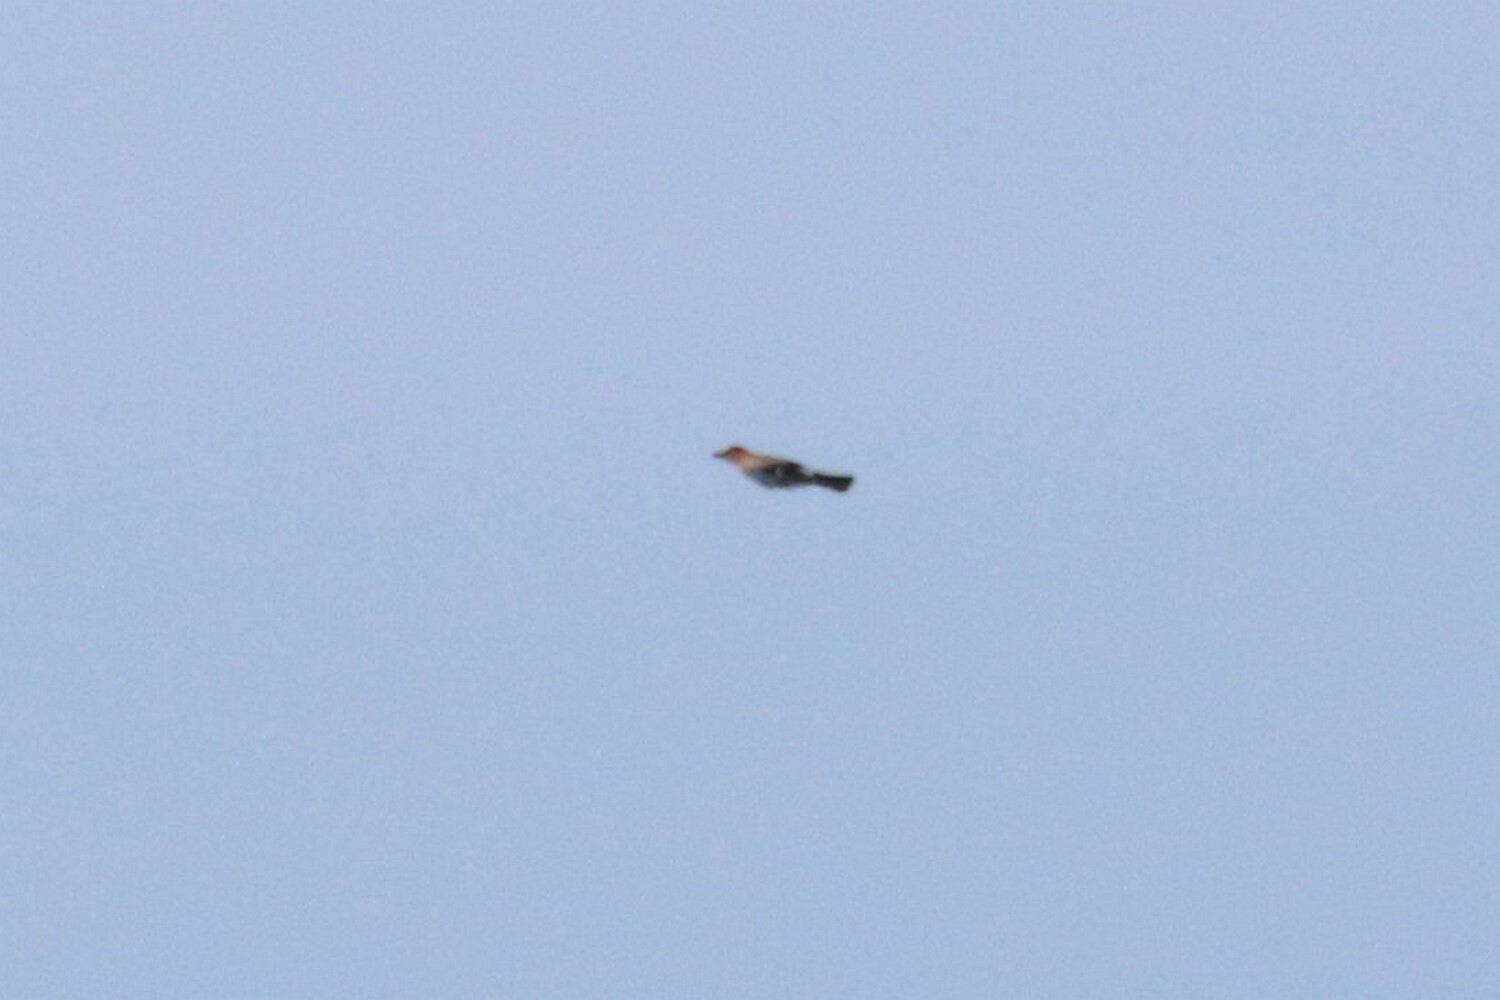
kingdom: Animalia
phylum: Chordata
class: Aves
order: Passeriformes
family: Corvidae
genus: Garrulus
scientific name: Garrulus glandarius
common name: Eurasian jay
